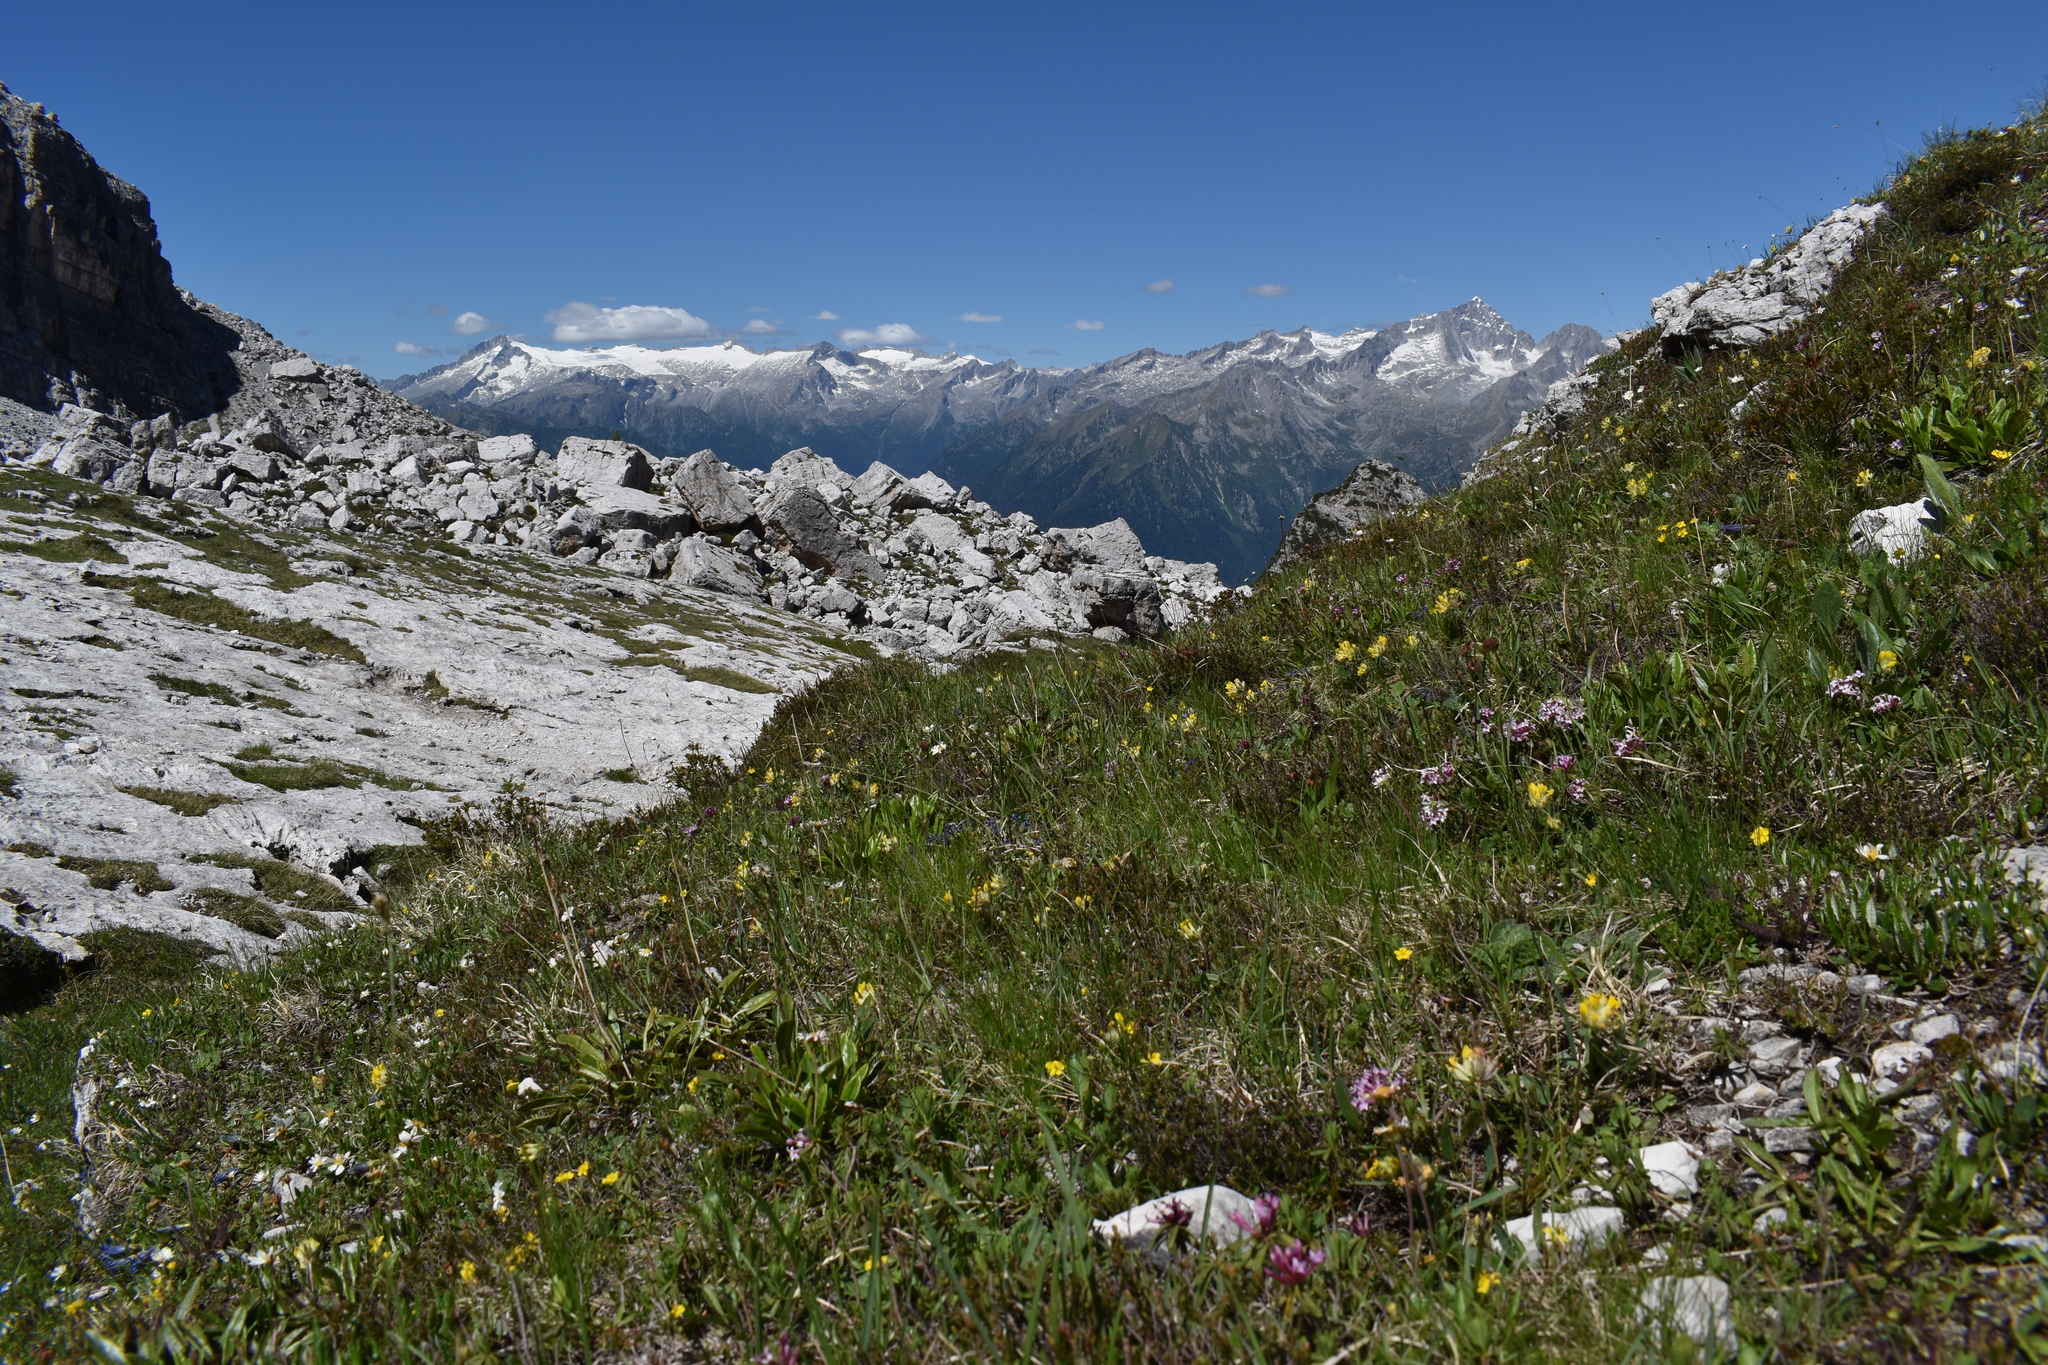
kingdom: Plantae
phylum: Tracheophyta
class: Magnoliopsida
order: Malvales
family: Thymelaeaceae
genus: Daphne
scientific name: Daphne striata
